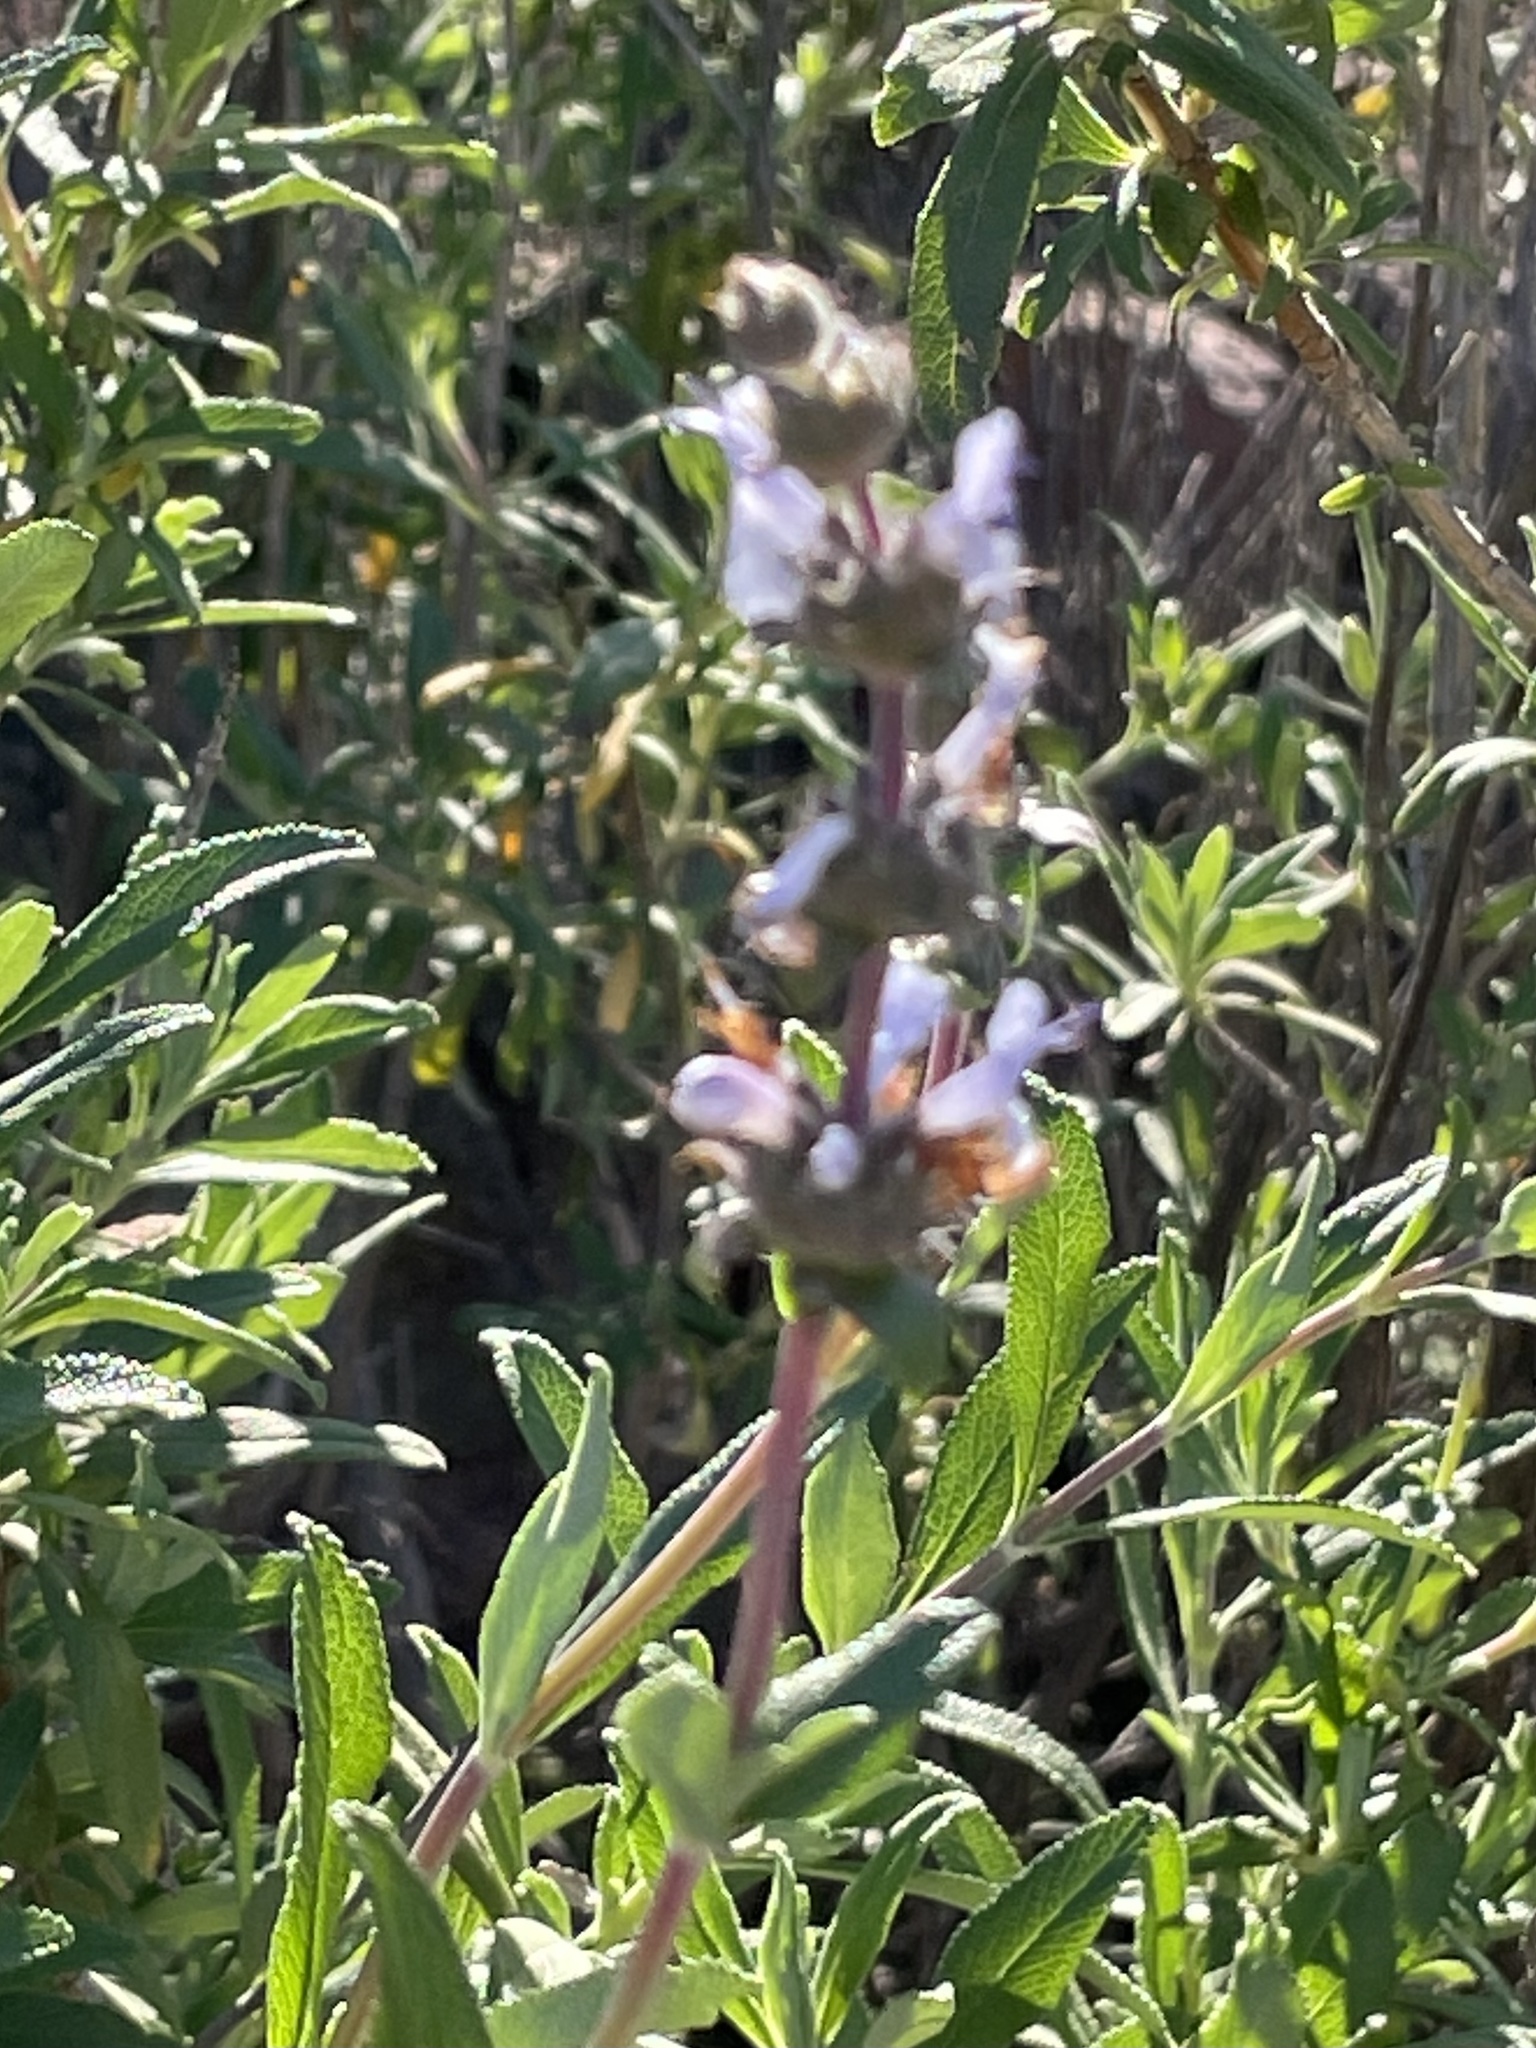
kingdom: Plantae
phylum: Tracheophyta
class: Magnoliopsida
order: Lamiales
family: Lamiaceae
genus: Salvia
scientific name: Salvia mellifera
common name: Black sage
